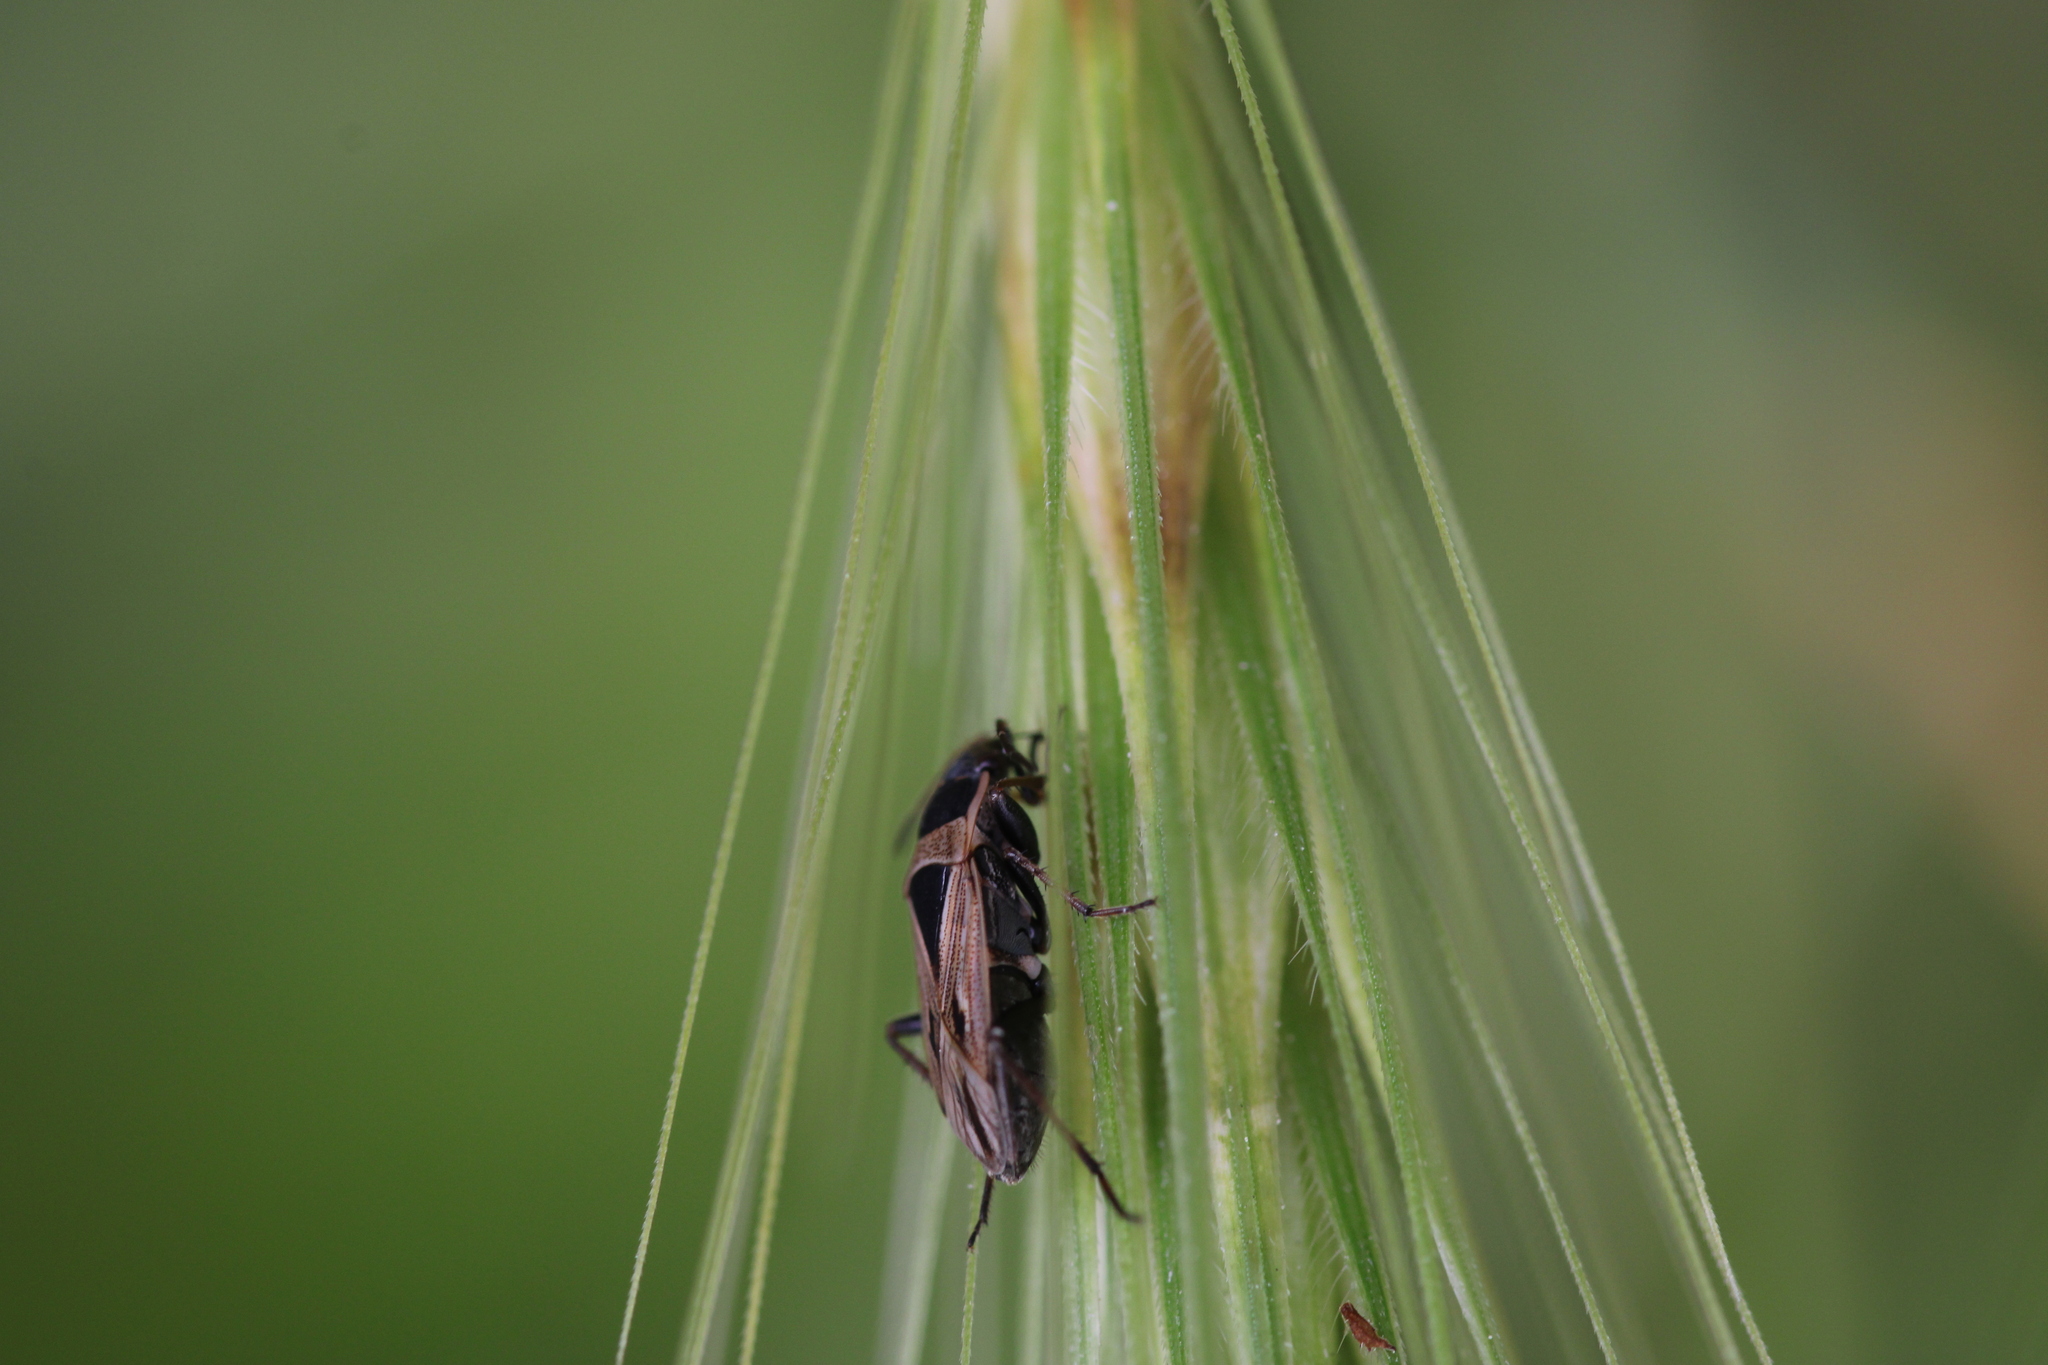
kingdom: Animalia
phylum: Arthropoda
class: Insecta
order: Hemiptera
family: Rhyparochromidae
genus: Xanthochilus
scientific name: Xanthochilus quadratus
